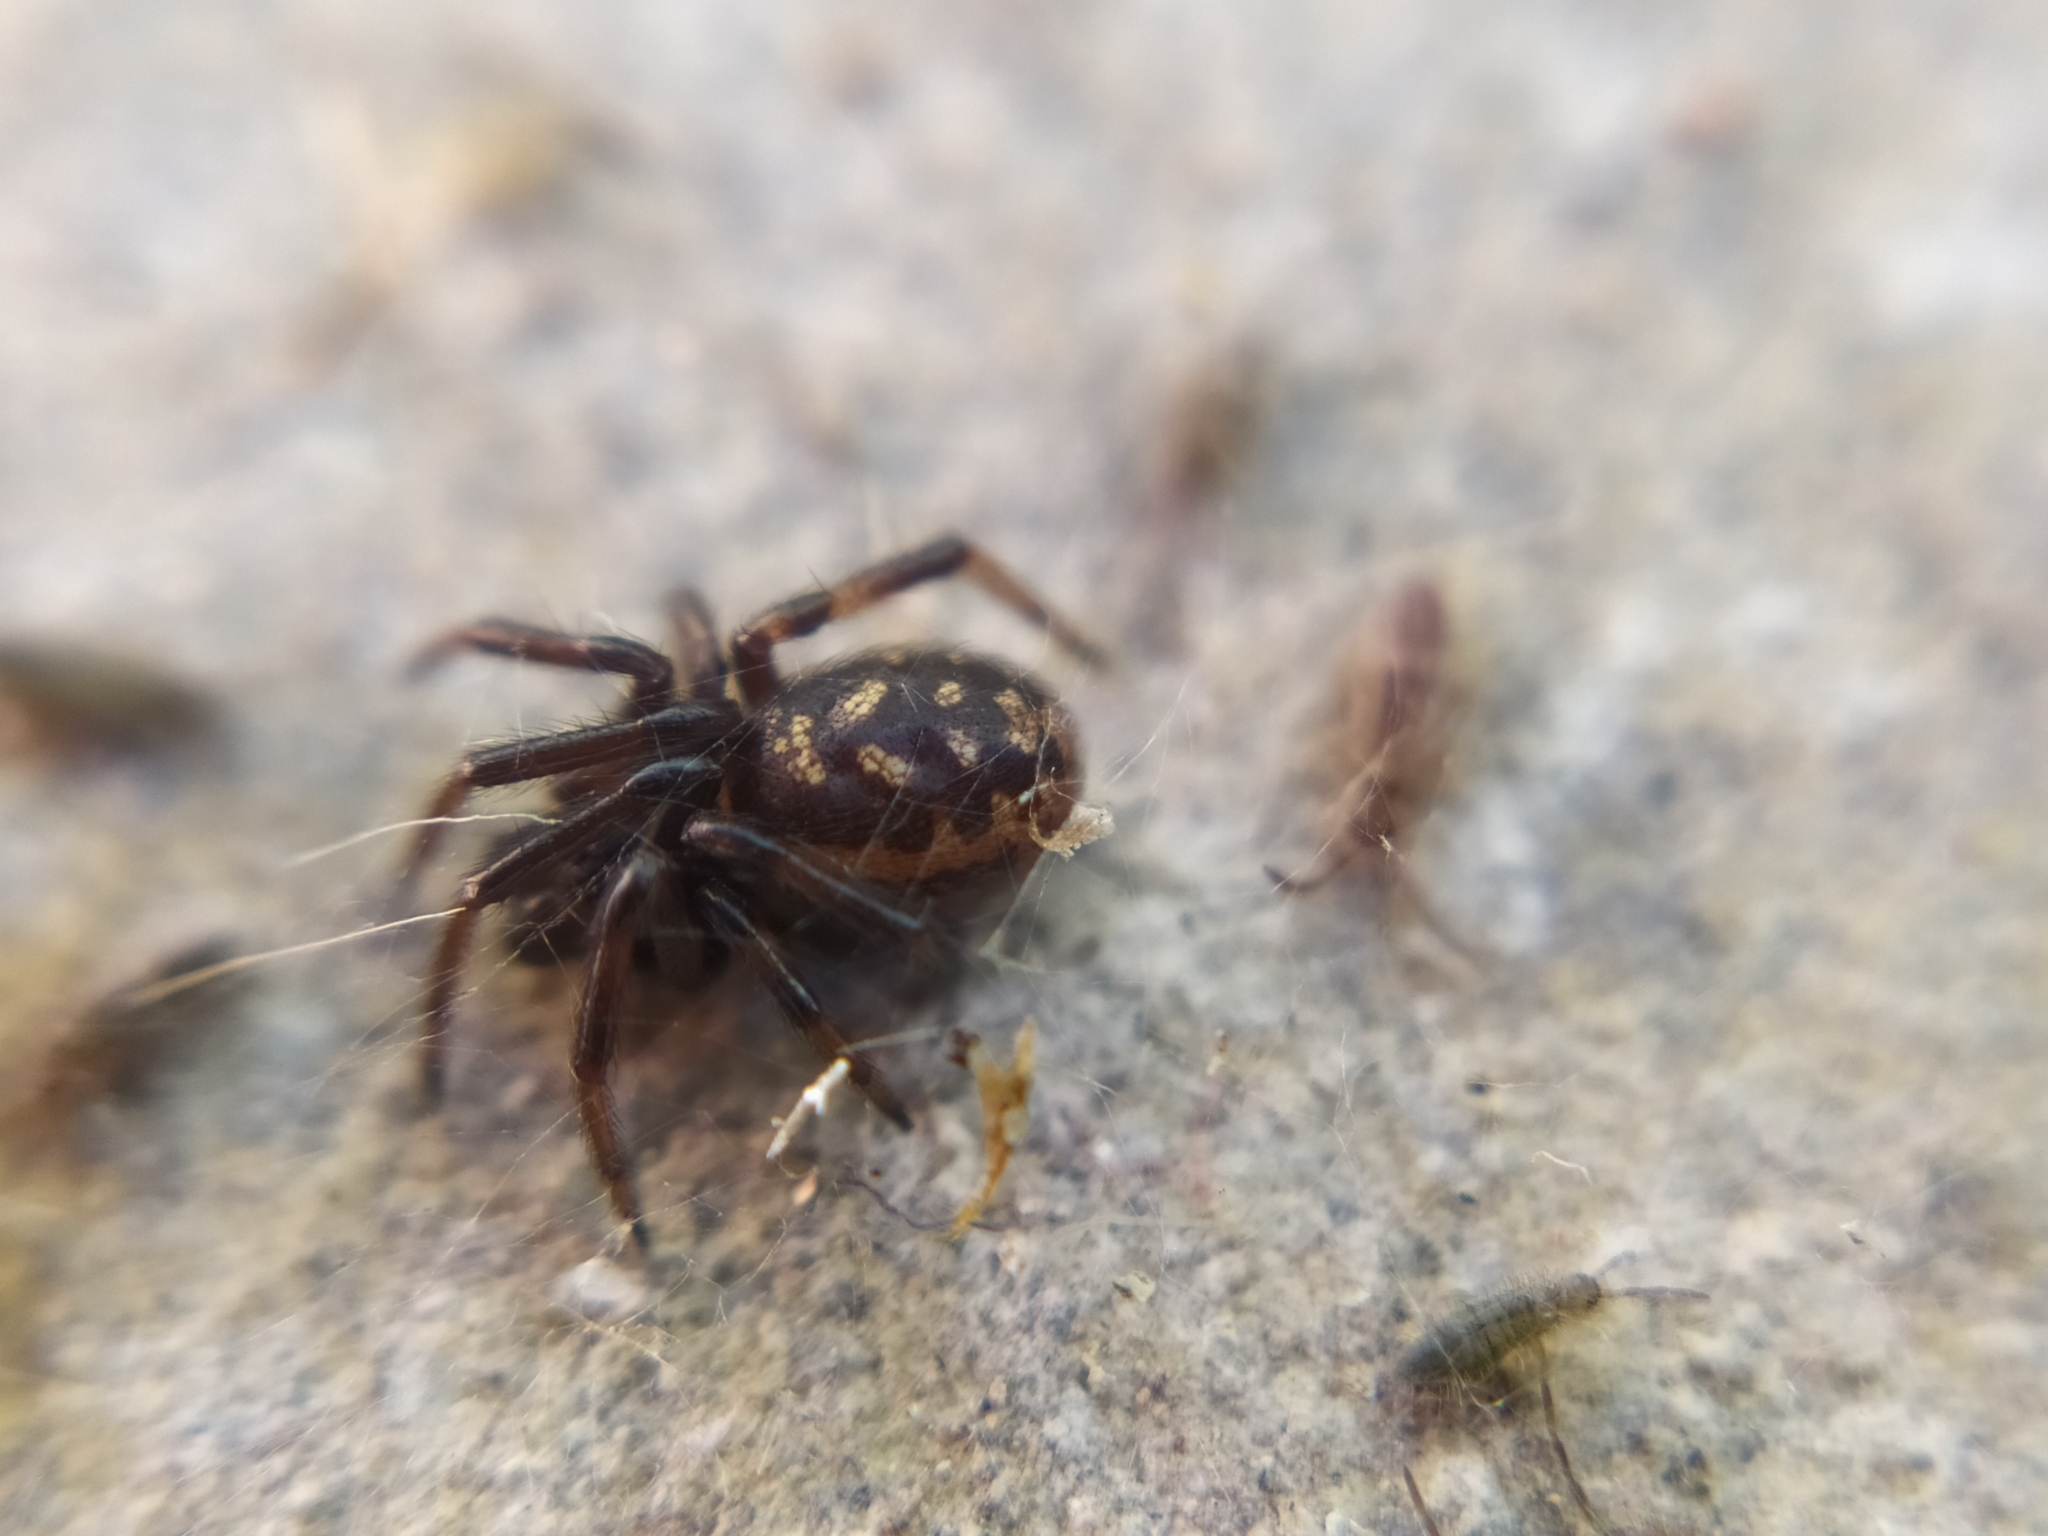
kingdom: Animalia
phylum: Arthropoda
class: Arachnida
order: Araneae
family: Theridiidae
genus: Steatoda
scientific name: Steatoda albomaculata
